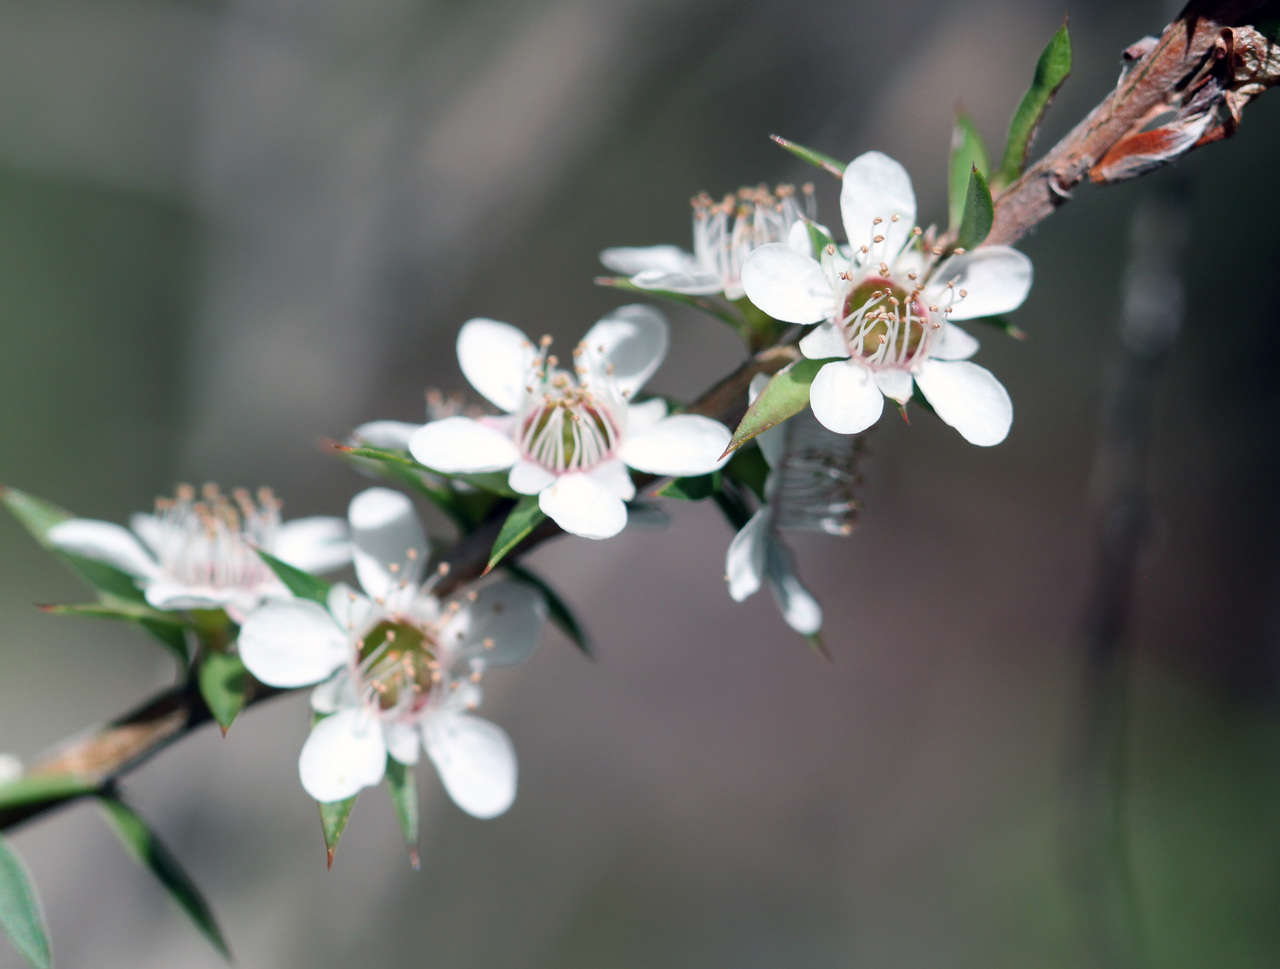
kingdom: Plantae
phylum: Tracheophyta
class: Magnoliopsida
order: Myrtales
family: Myrtaceae
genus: Leptospermum
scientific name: Leptospermum continentale
